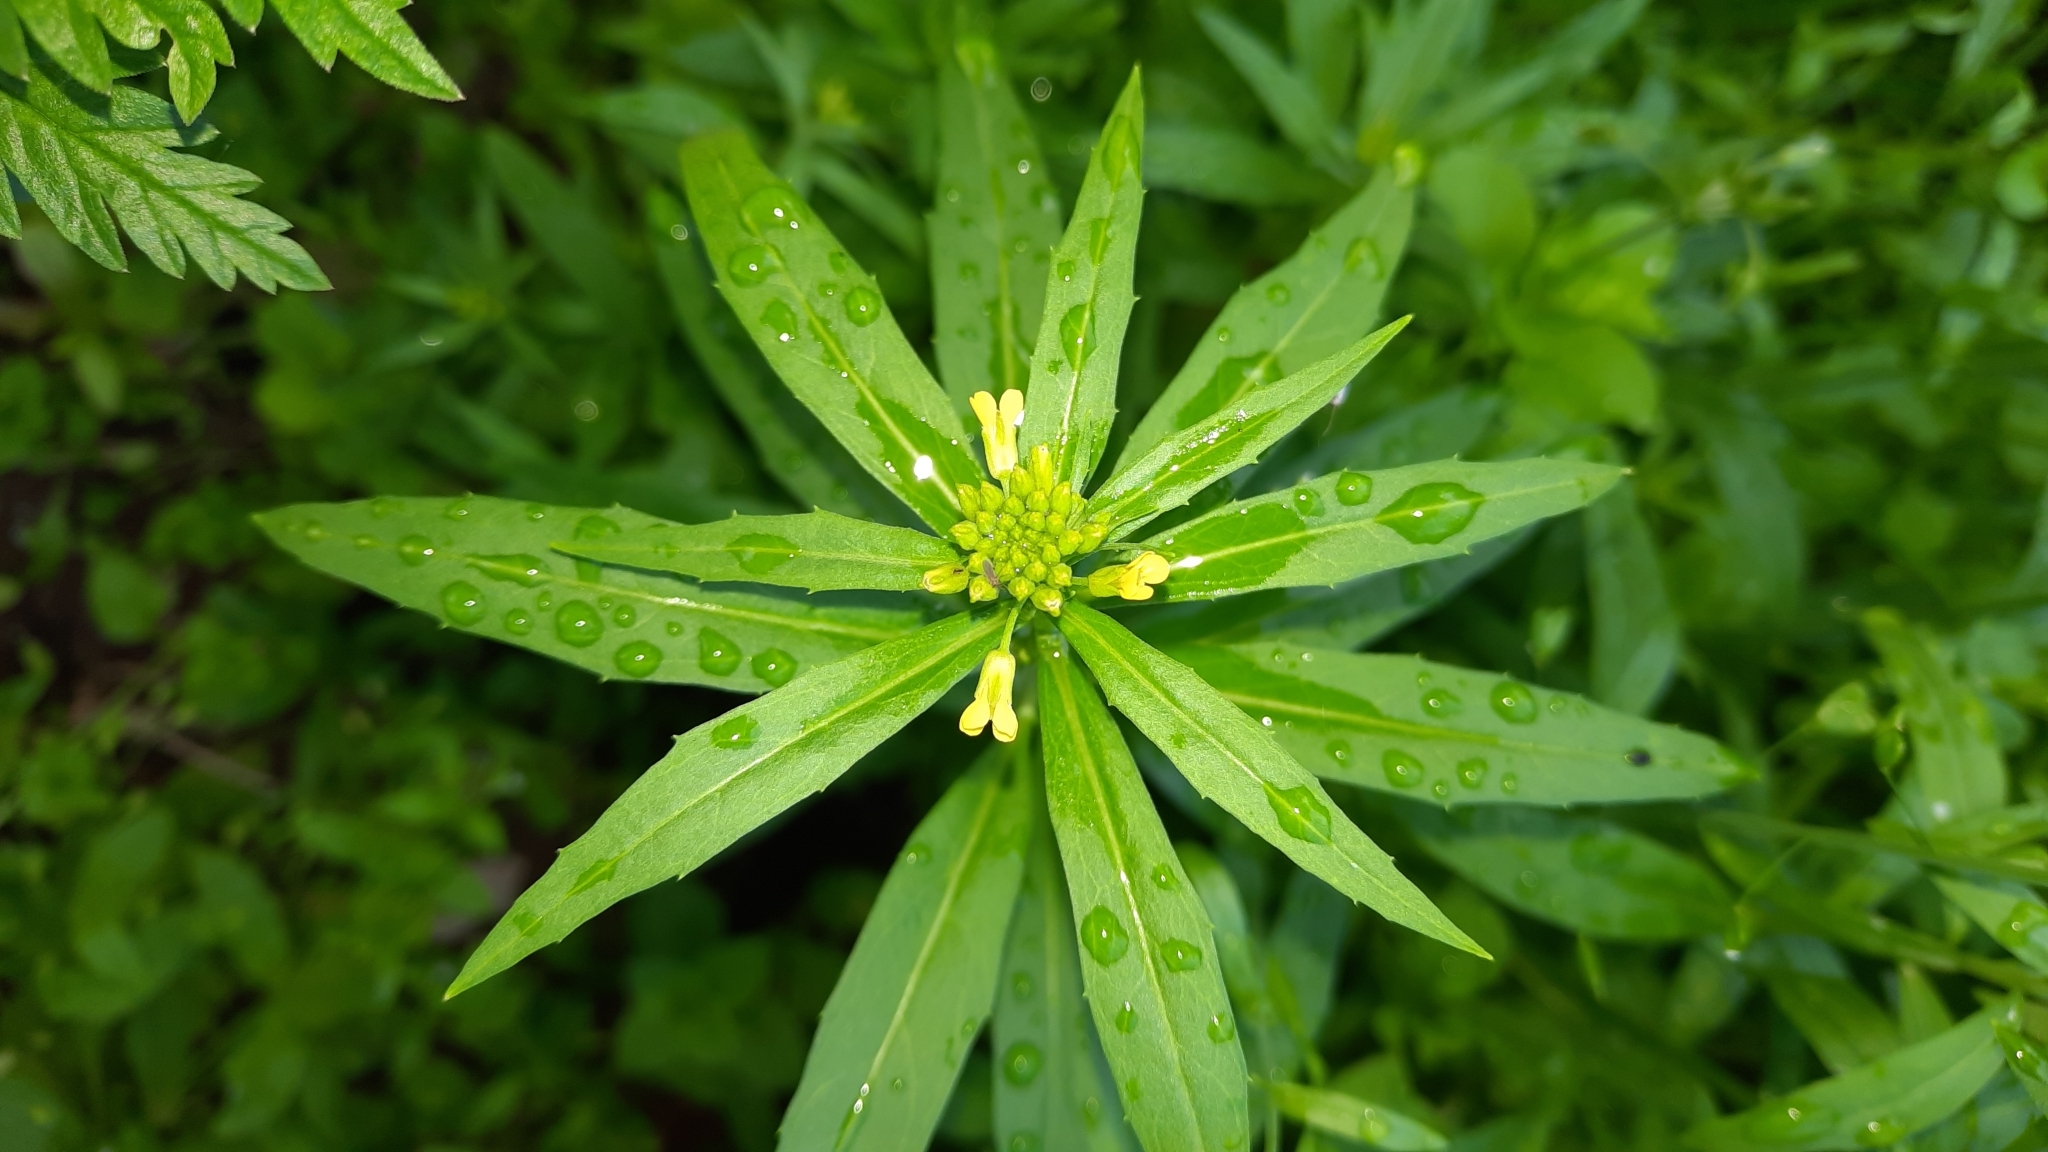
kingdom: Plantae
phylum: Tracheophyta
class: Magnoliopsida
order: Brassicales
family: Brassicaceae
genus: Erysimum
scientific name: Erysimum cheiranthoides
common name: Treacle mustard
